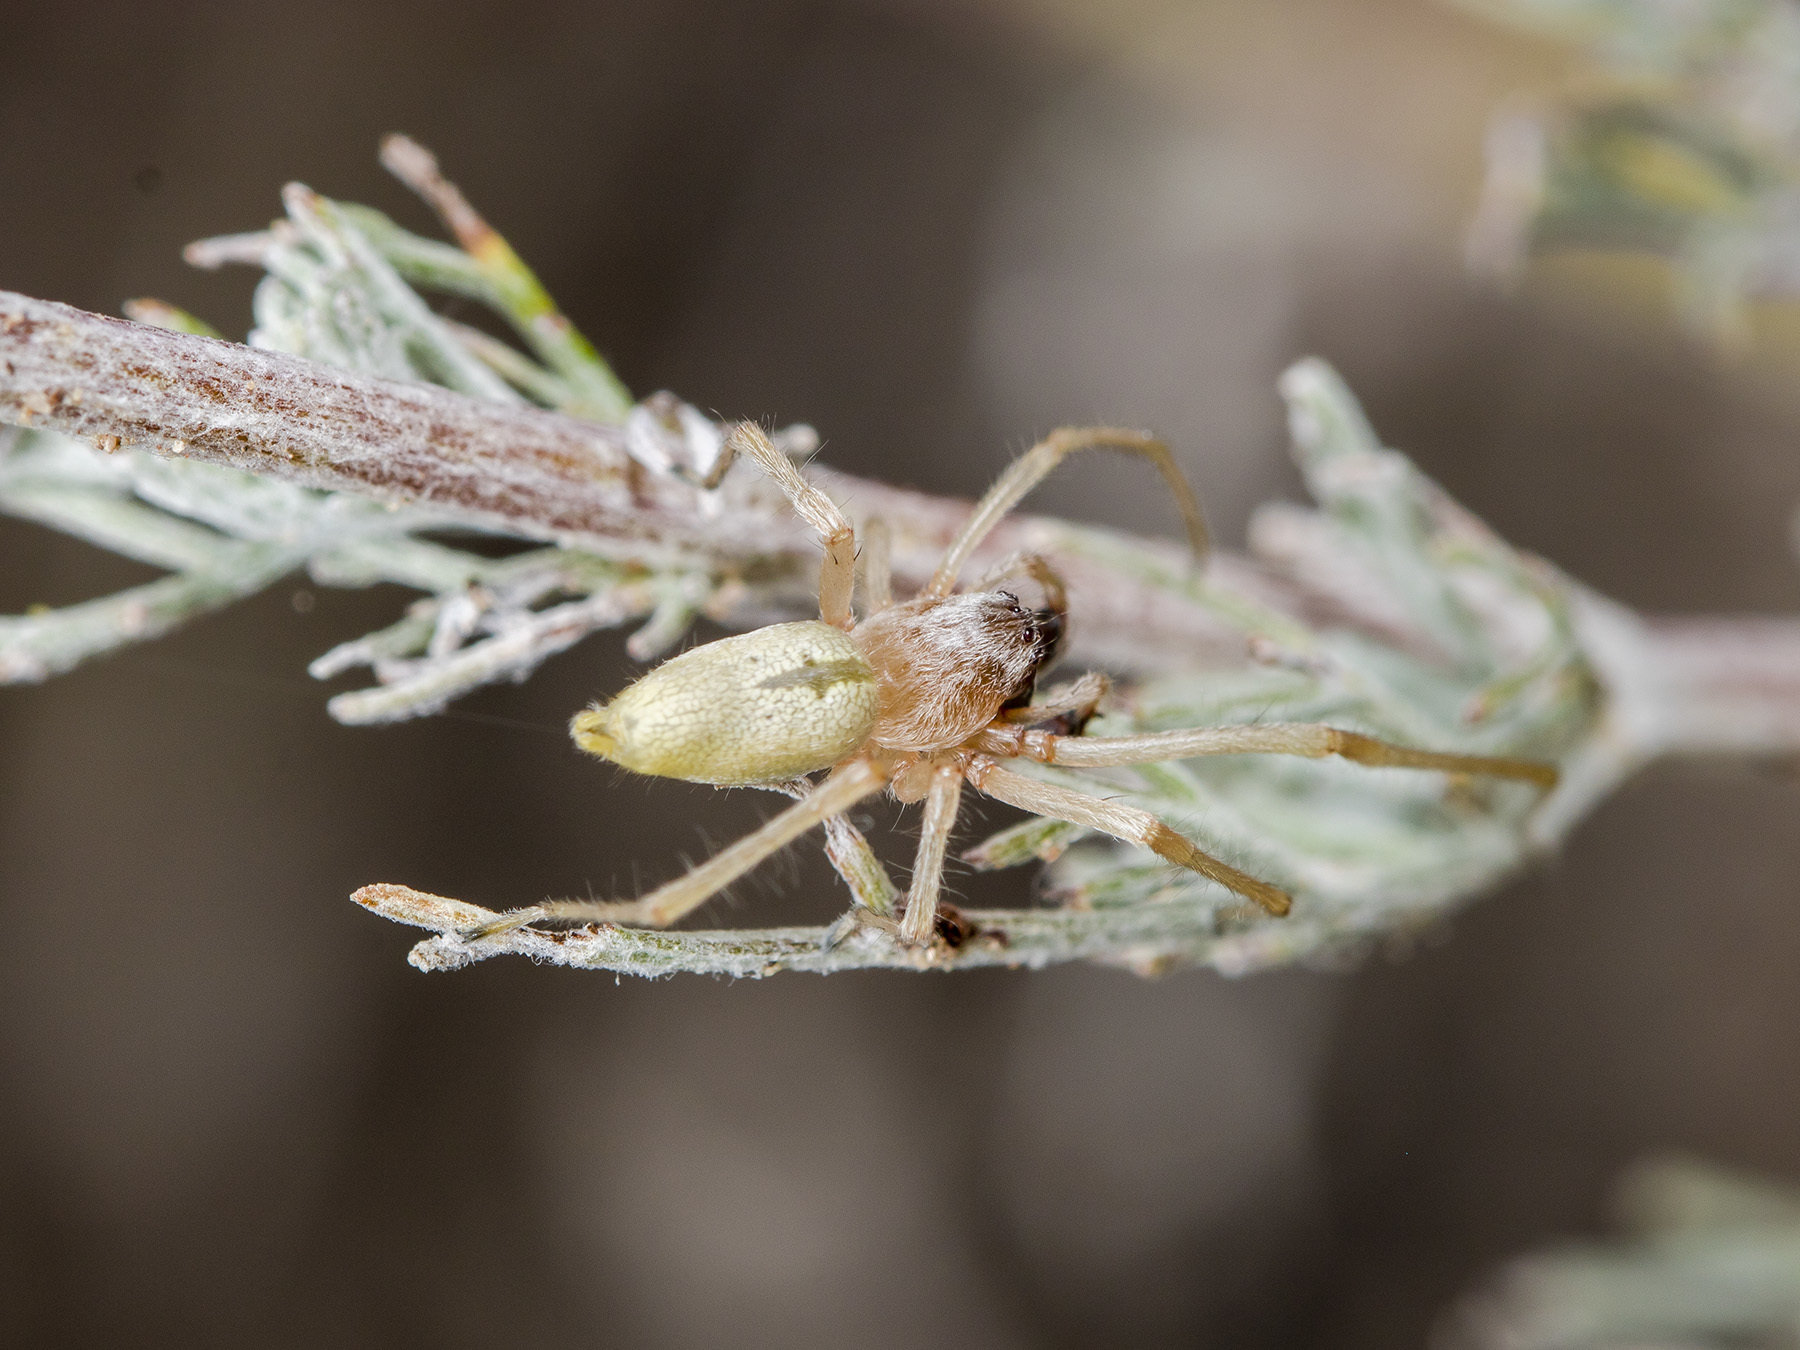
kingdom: Animalia
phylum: Arthropoda
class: Arachnida
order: Araneae
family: Cheiracanthiidae
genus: Cheiracanthium
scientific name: Cheiracanthium virescens
